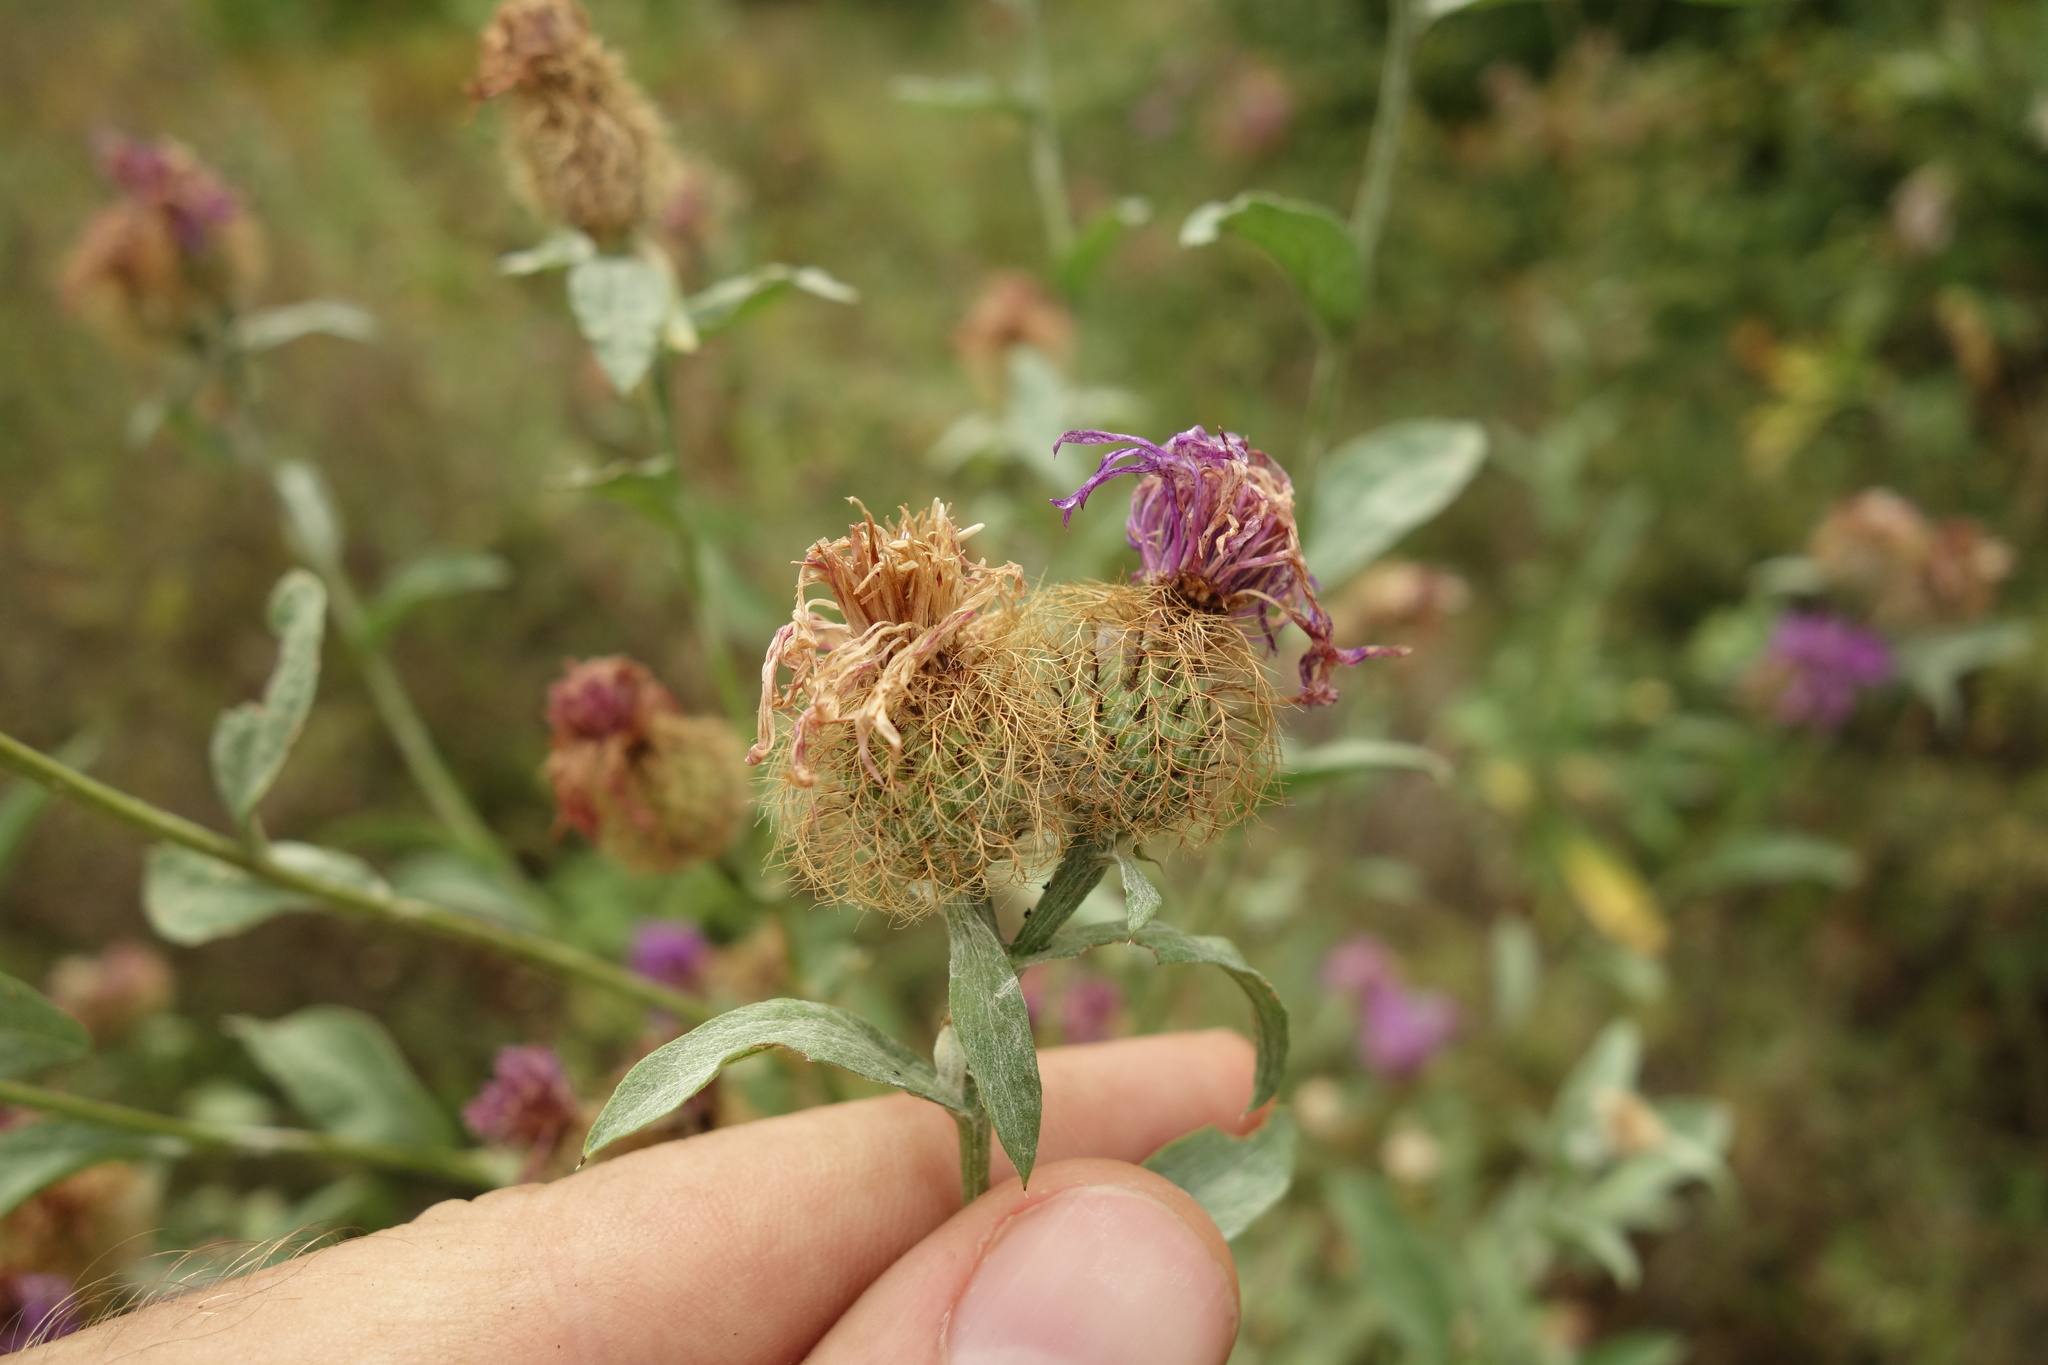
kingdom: Plantae
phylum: Tracheophyta
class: Magnoliopsida
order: Asterales
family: Asteraceae
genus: Centaurea
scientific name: Centaurea pseudophrygia
